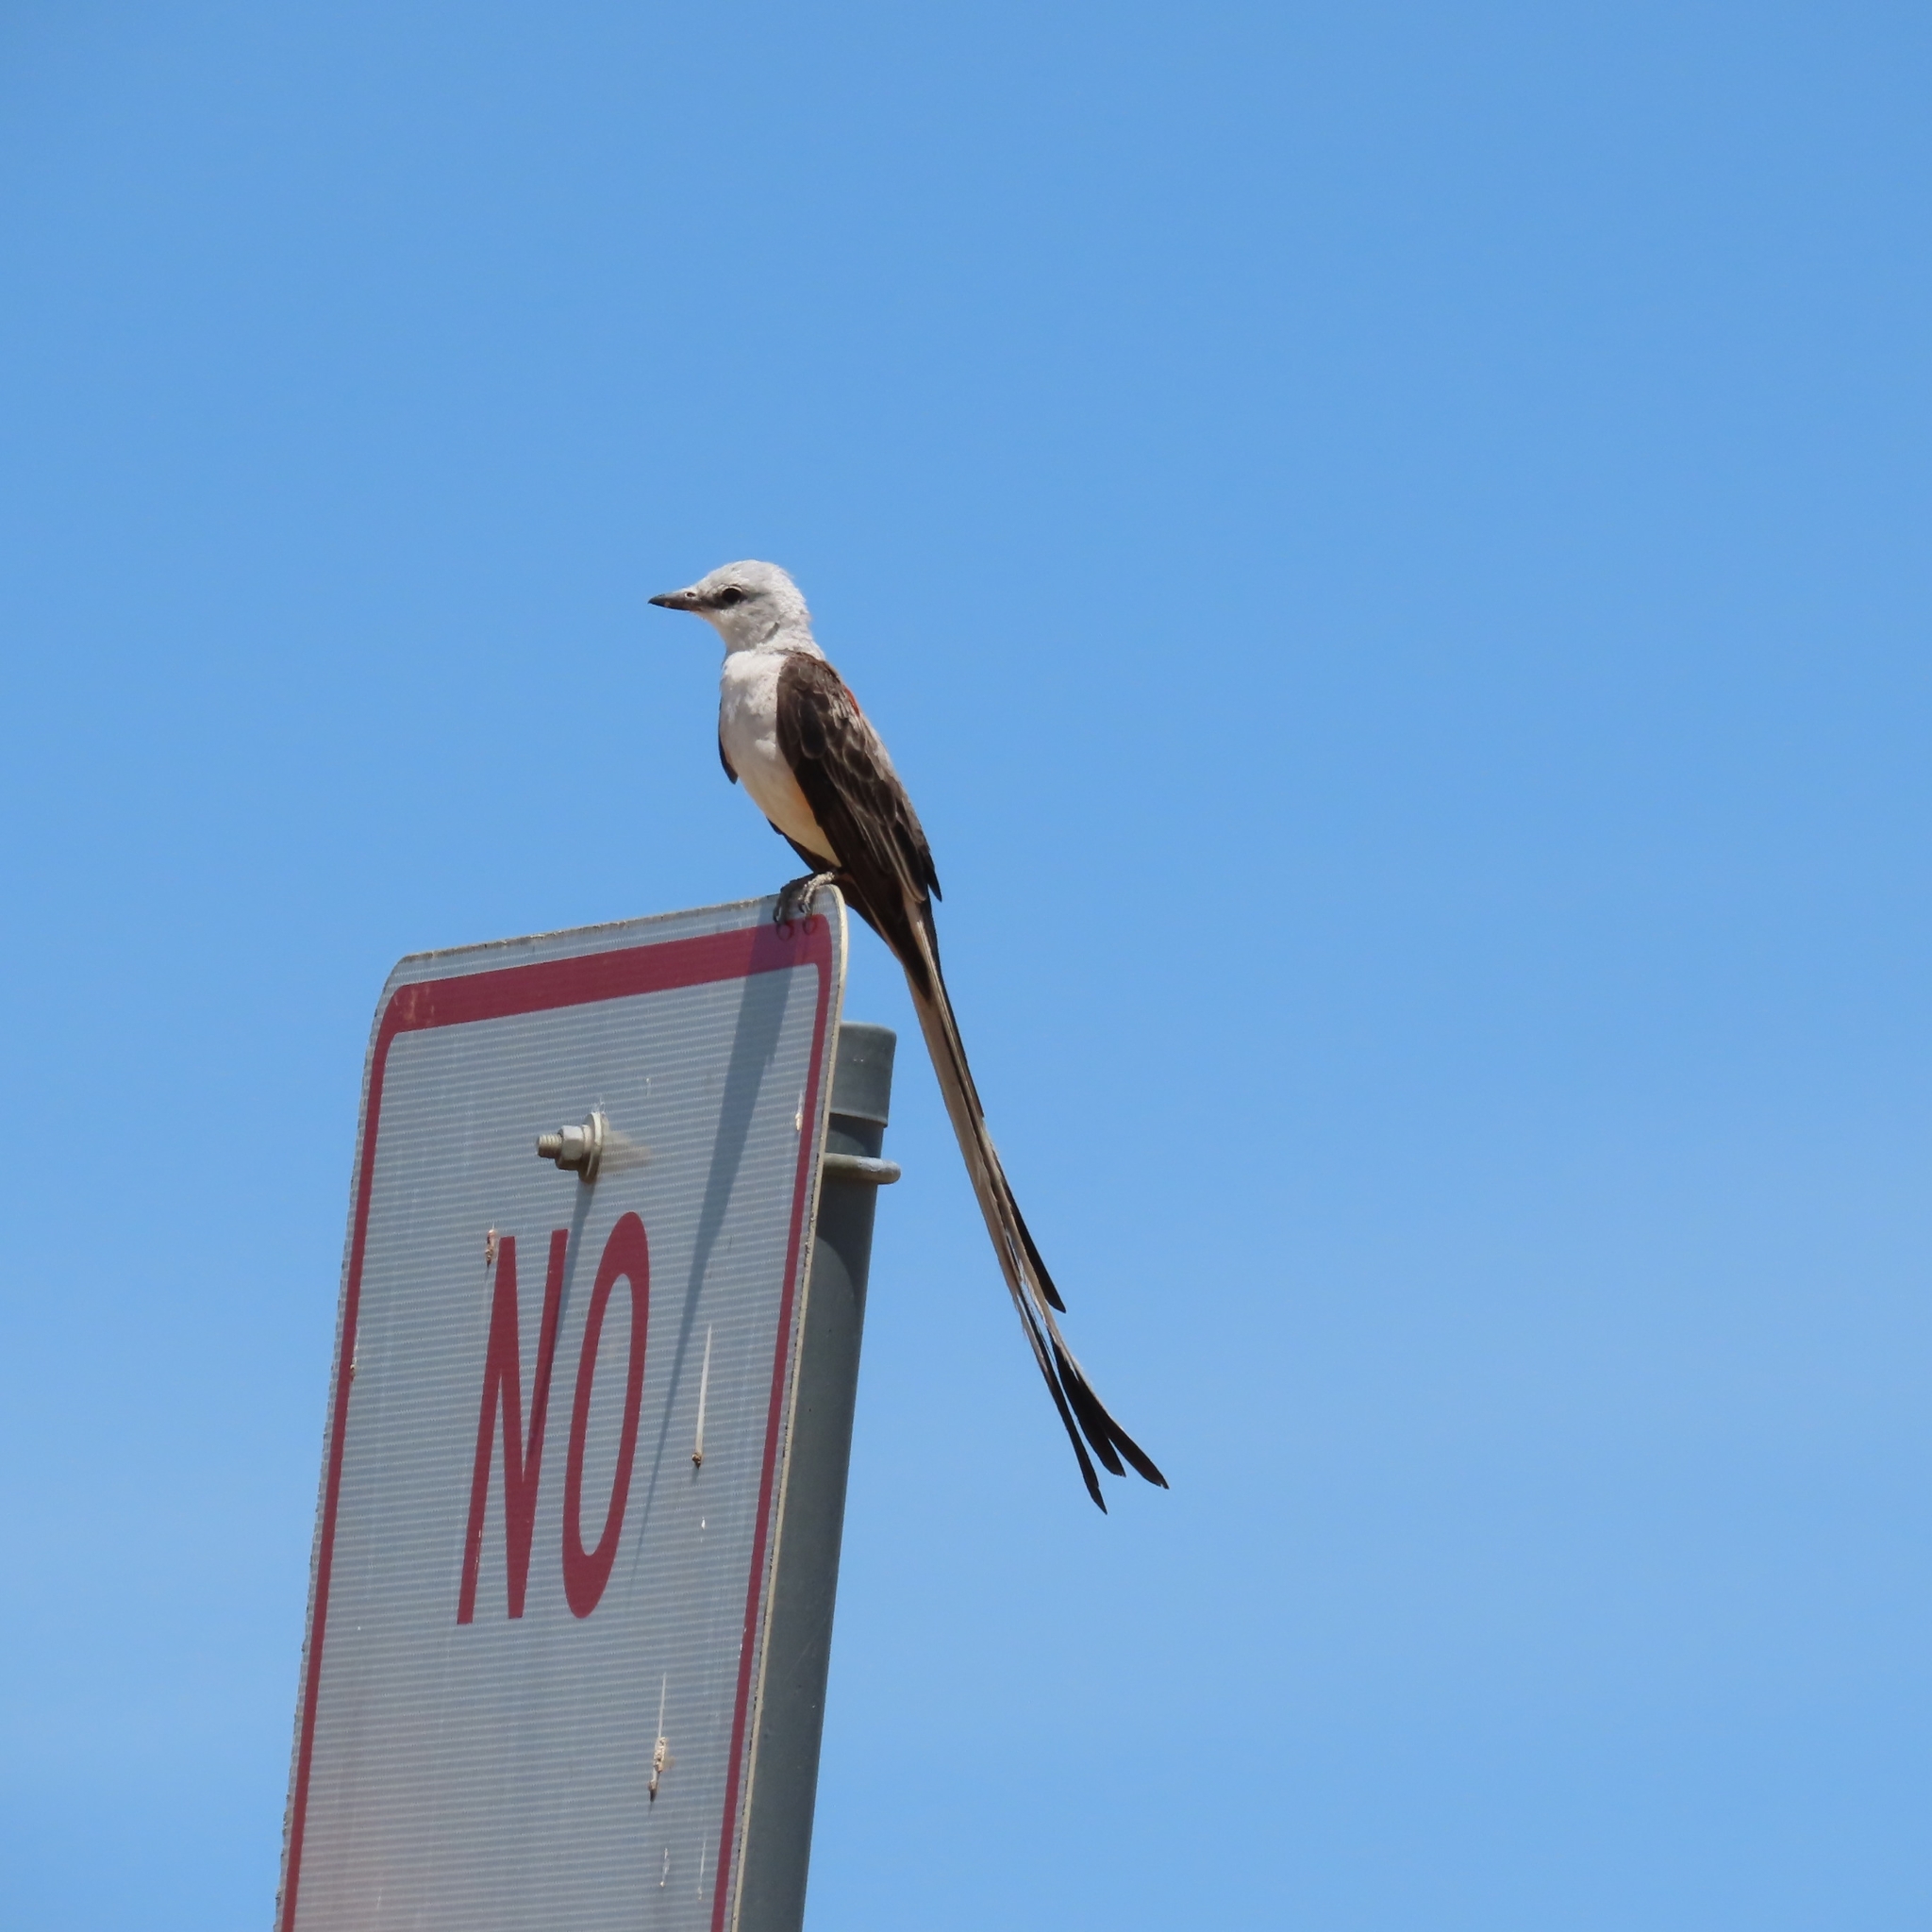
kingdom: Animalia
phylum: Chordata
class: Aves
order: Passeriformes
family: Tyrannidae
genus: Tyrannus
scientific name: Tyrannus forficatus
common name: Scissor-tailed flycatcher
